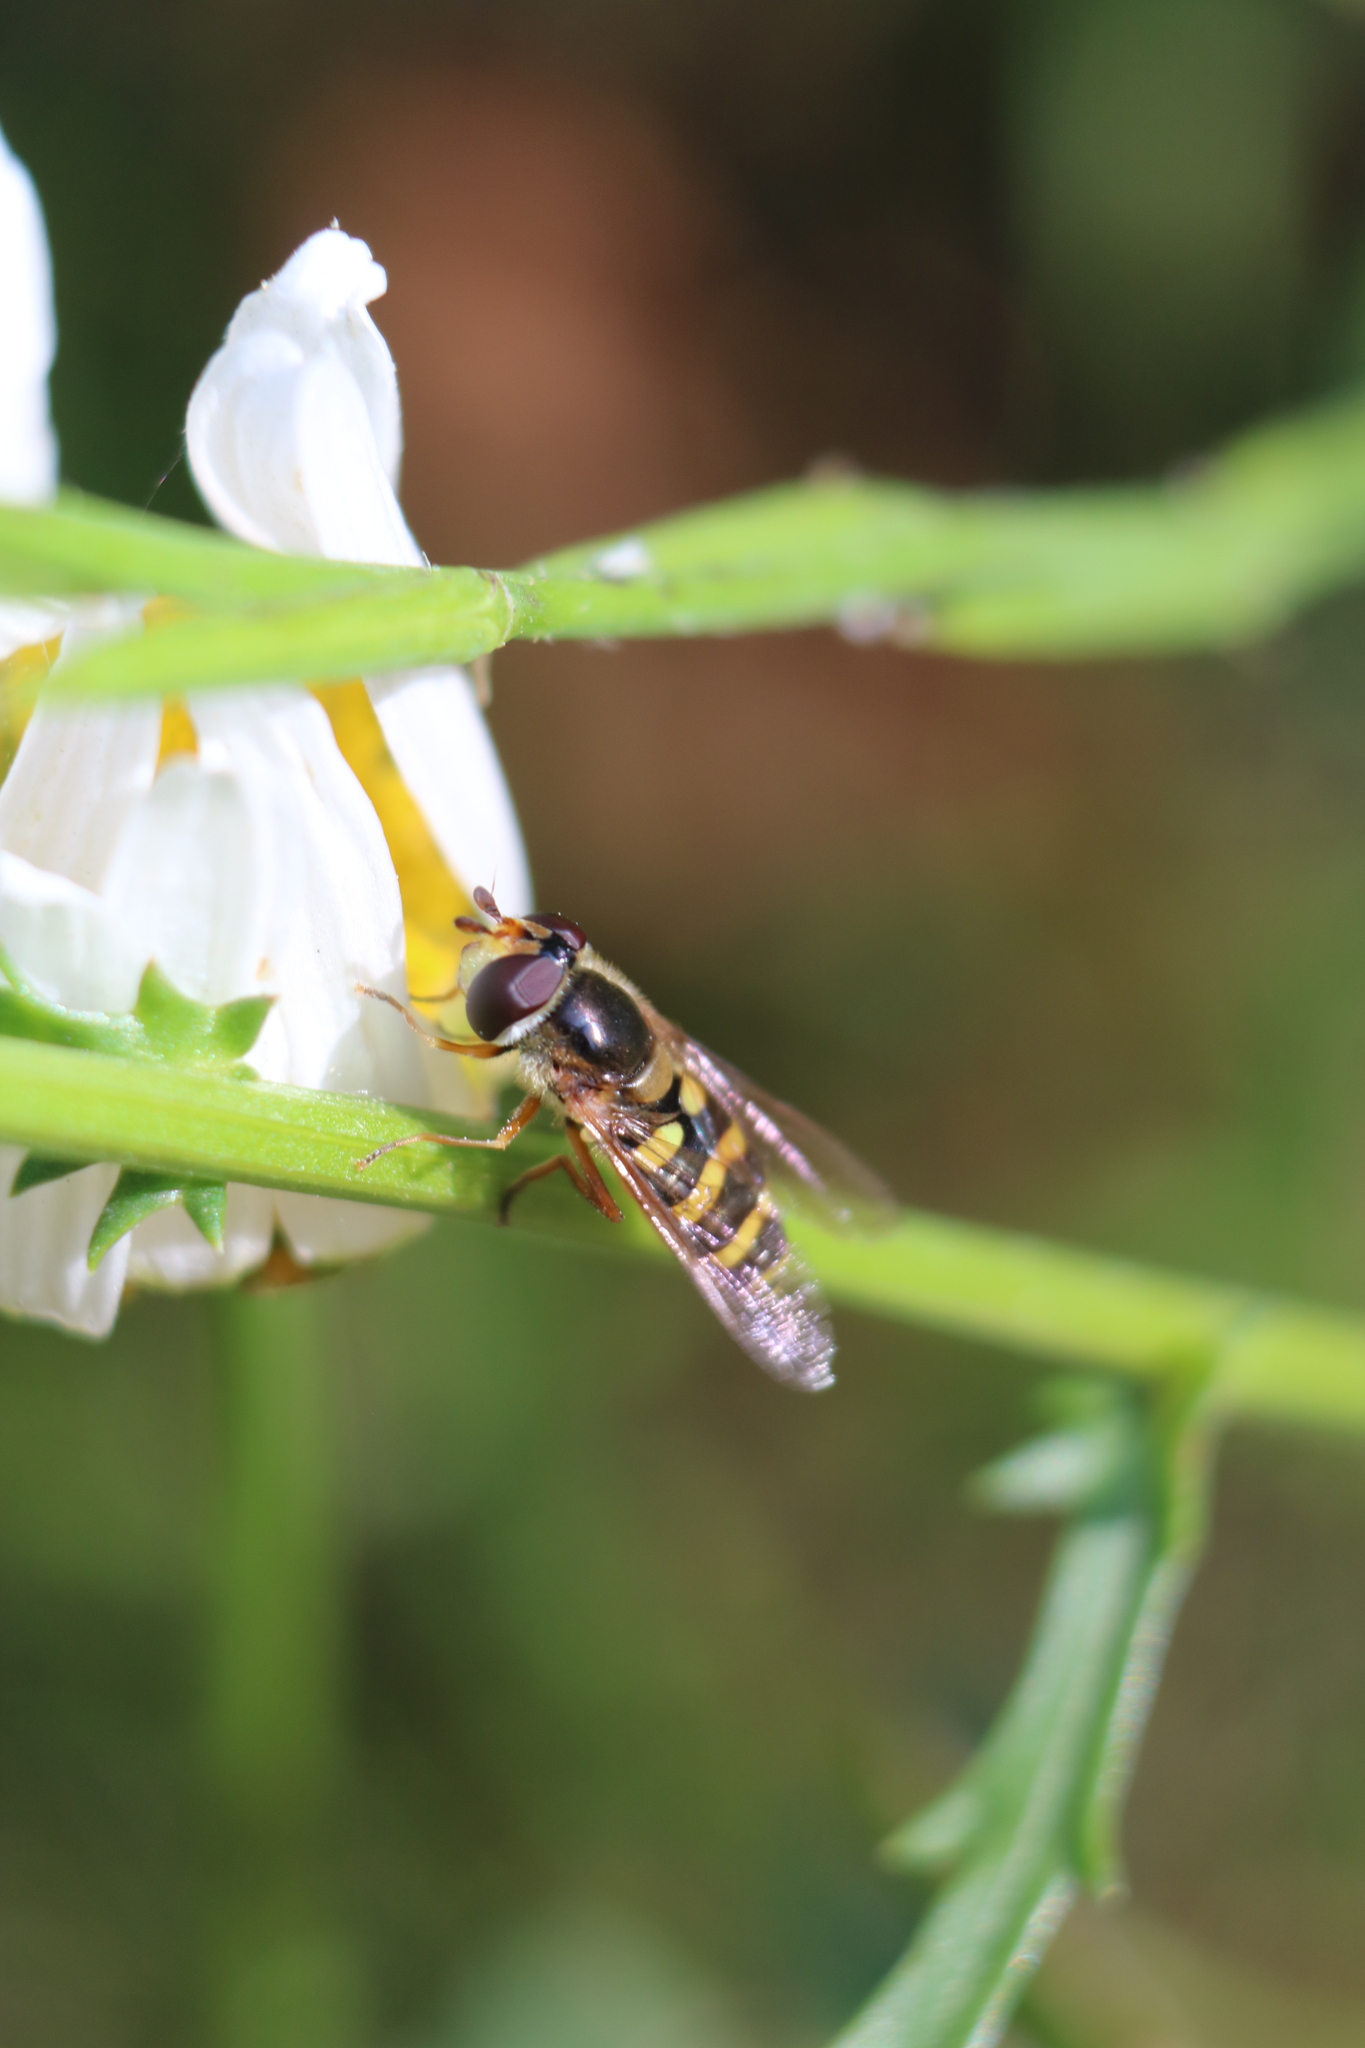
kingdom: Animalia
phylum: Arthropoda
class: Insecta
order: Diptera
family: Syrphidae
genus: Eupeodes
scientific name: Eupeodes fumipennis
